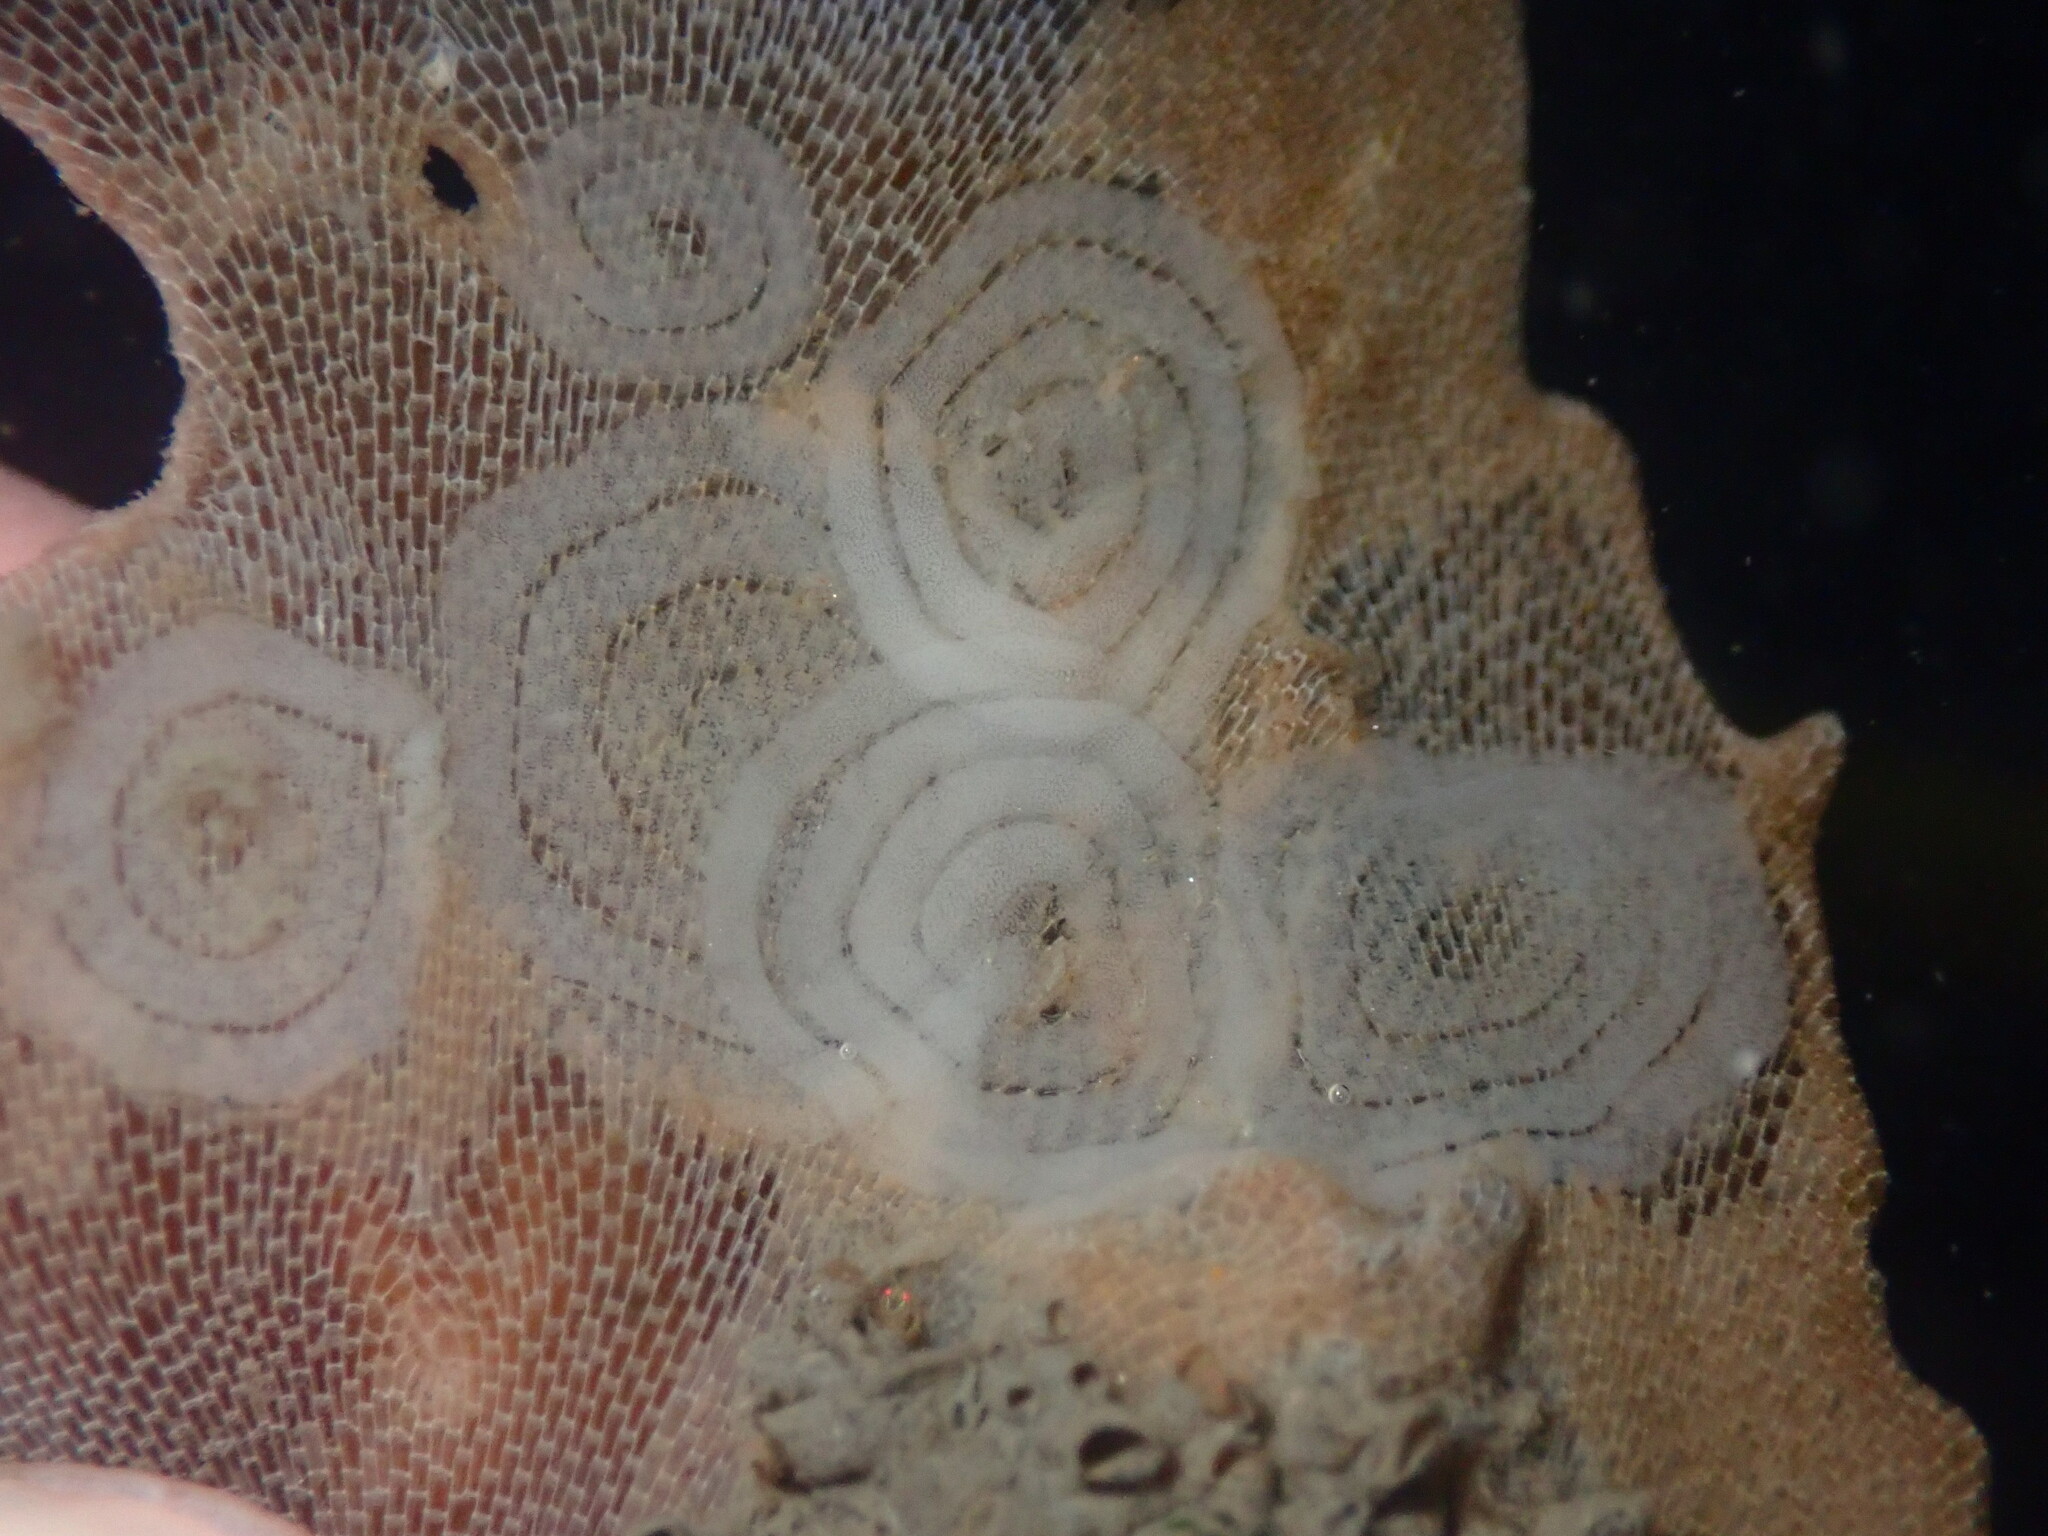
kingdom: Animalia
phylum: Mollusca
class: Gastropoda
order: Nudibranchia
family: Corambidae
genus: Corambe
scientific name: Corambe pacifica
